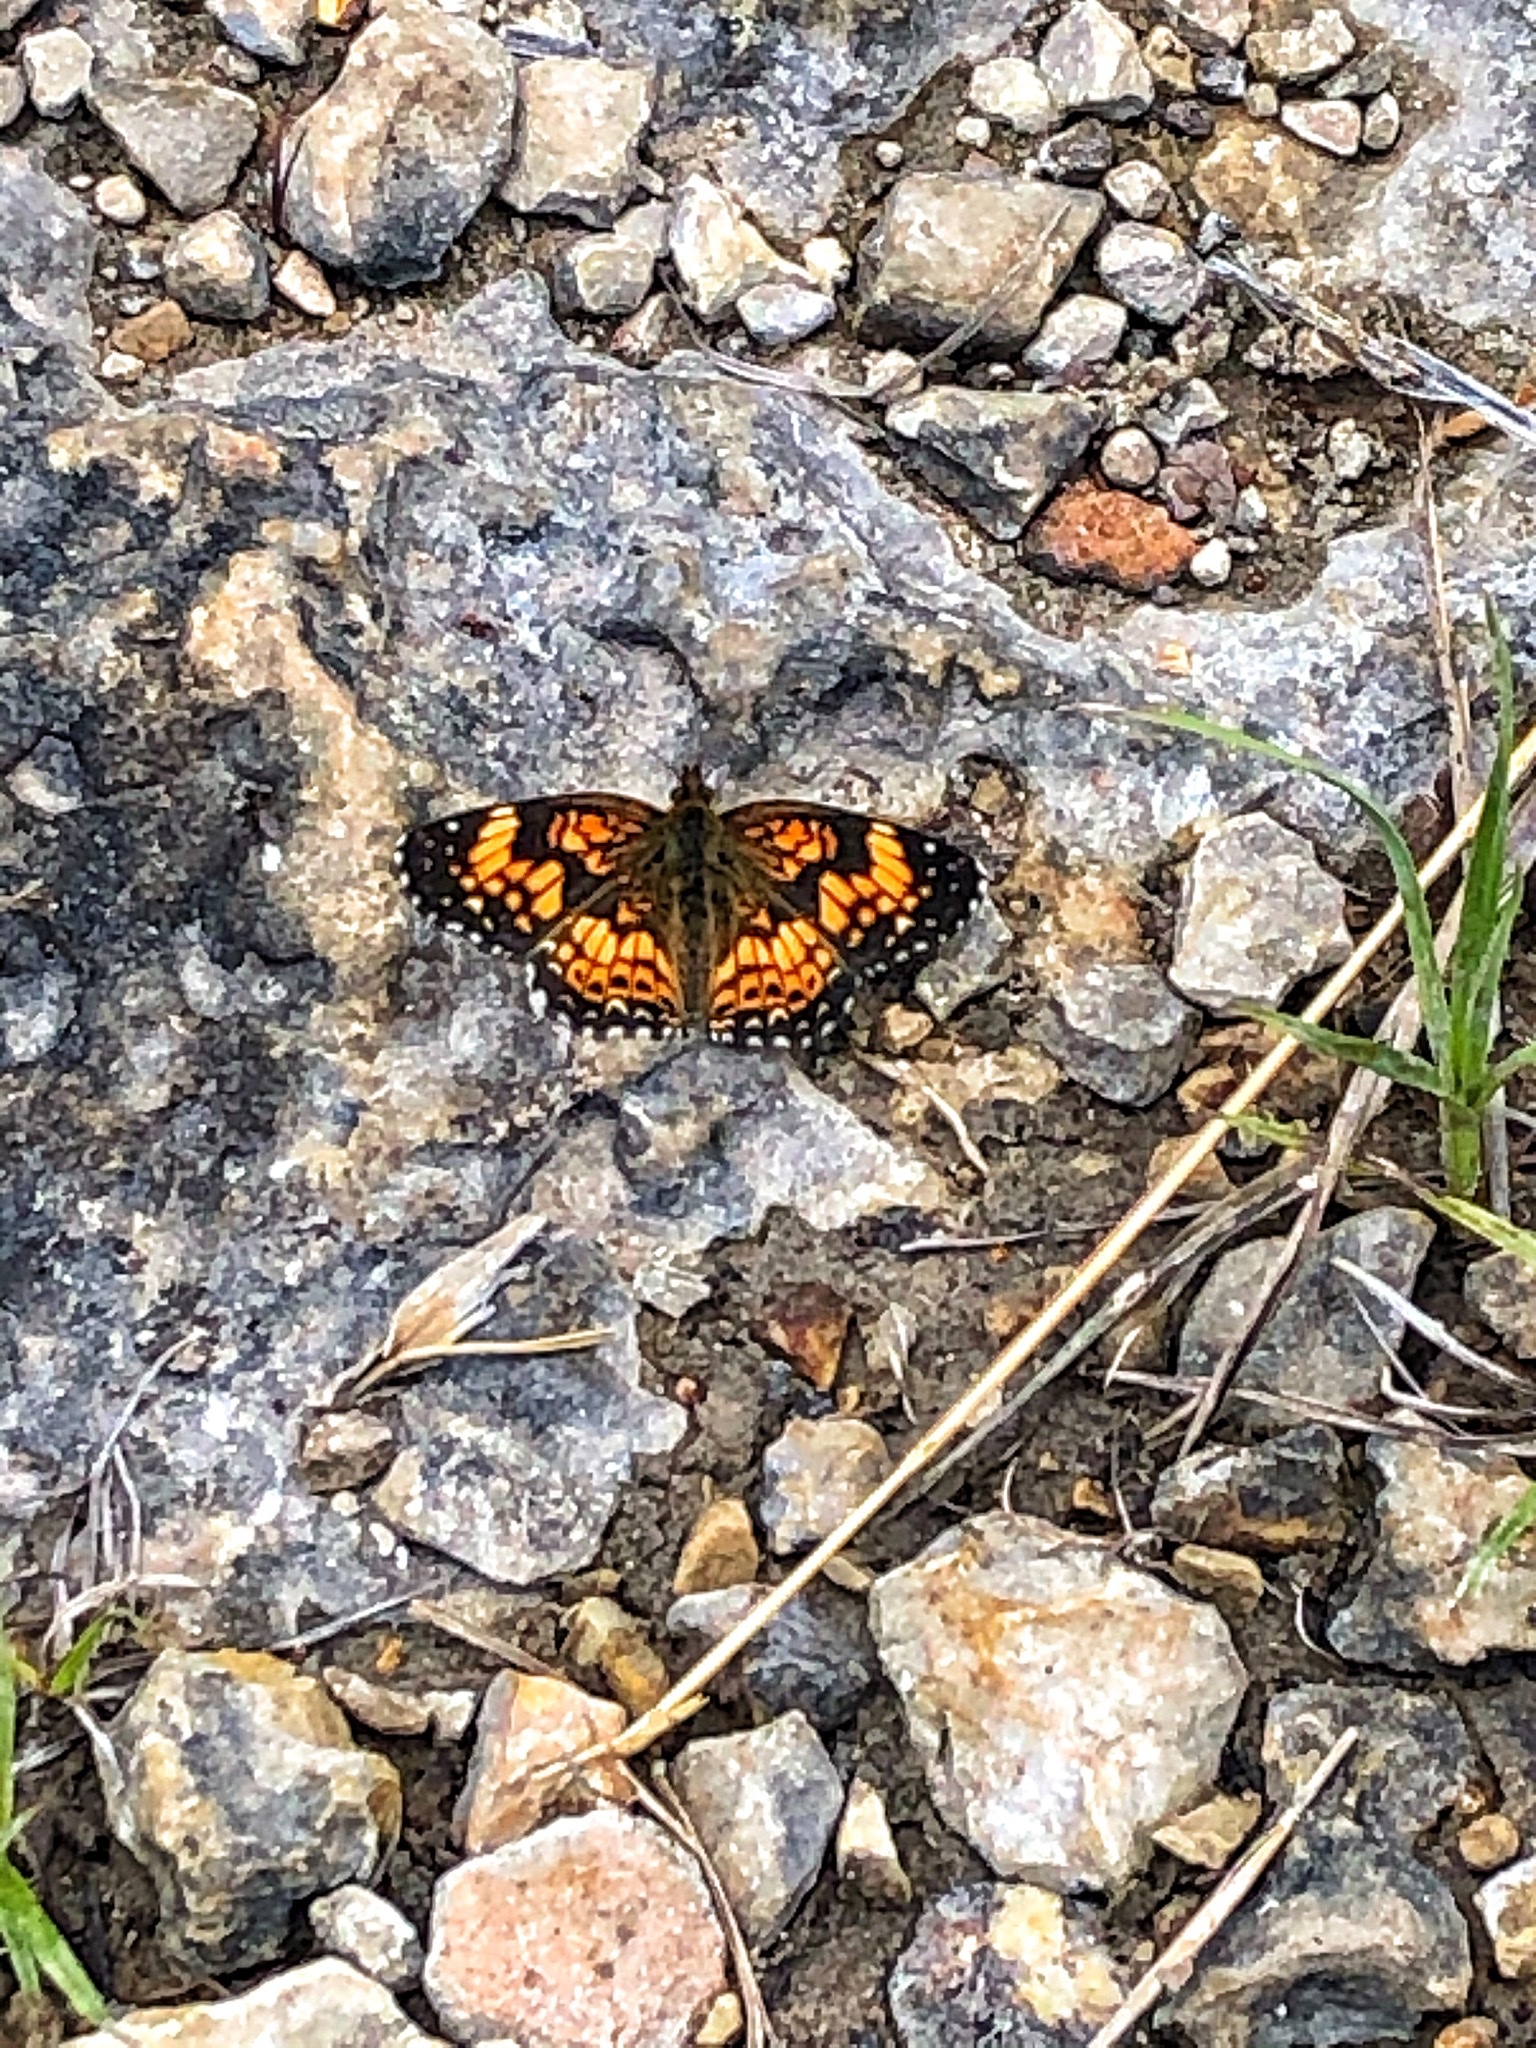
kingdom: Animalia
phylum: Arthropoda
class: Insecta
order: Lepidoptera
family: Nymphalidae
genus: Chlosyne
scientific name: Chlosyne gorgone
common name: Gorgone checkerspot
